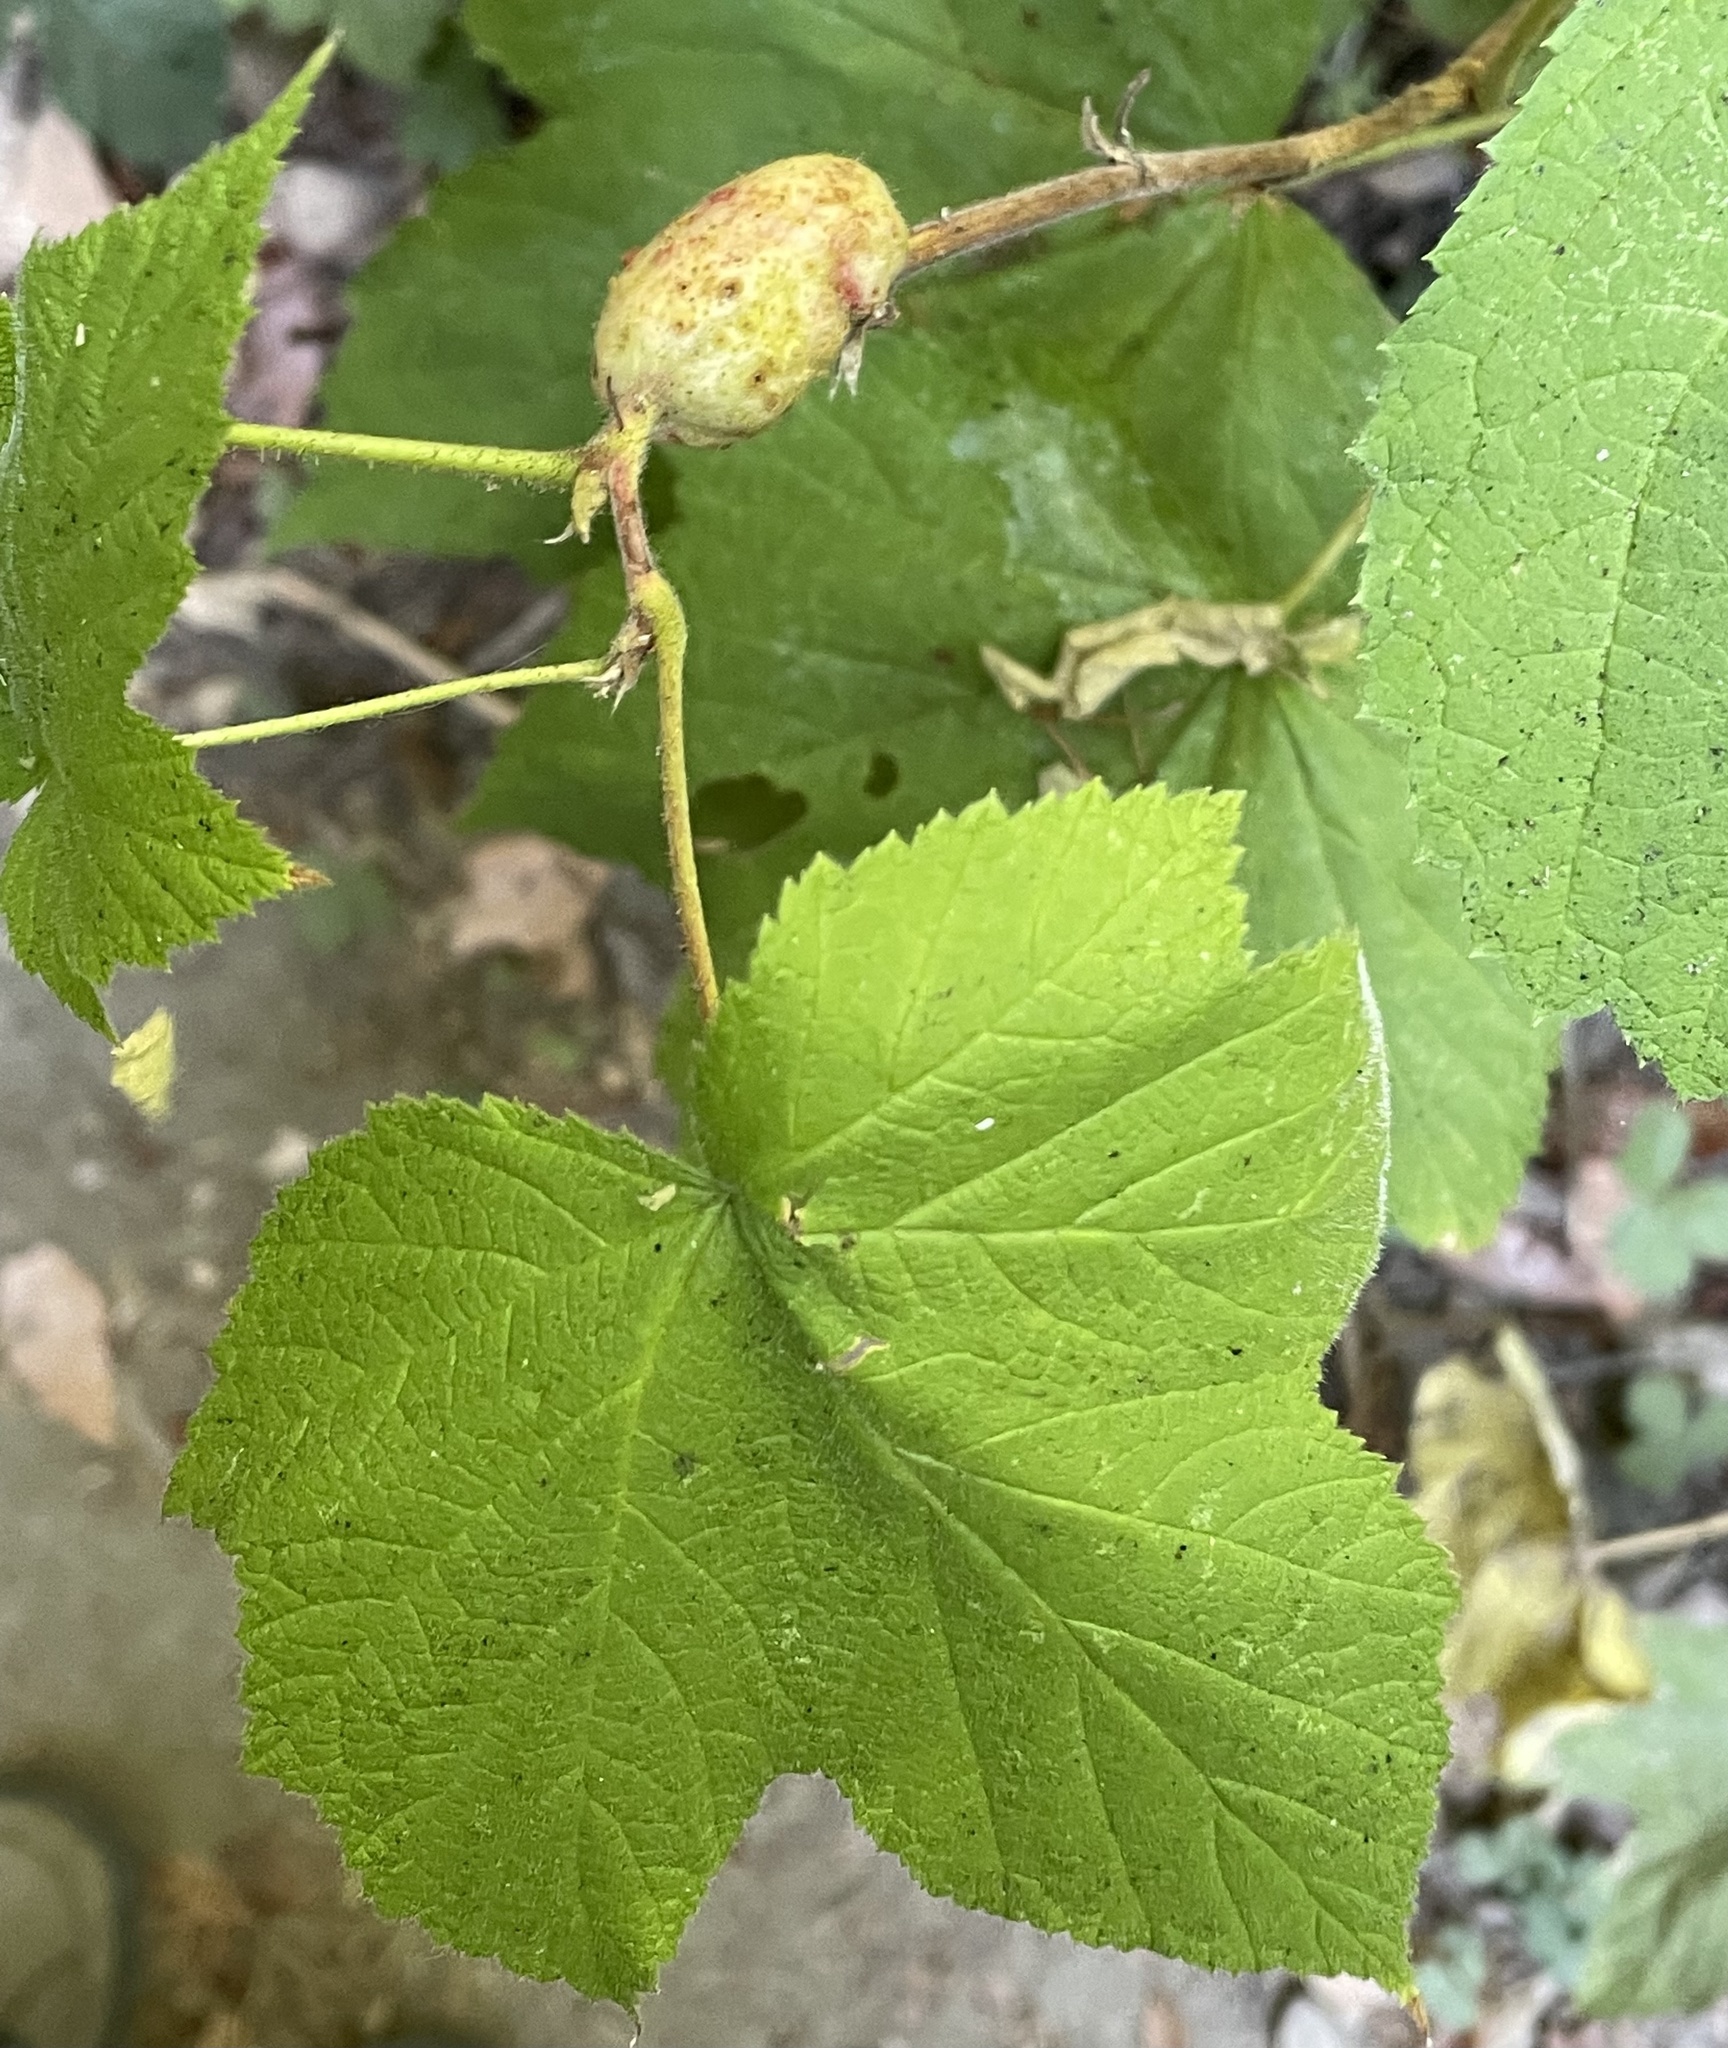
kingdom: Plantae
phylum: Tracheophyta
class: Magnoliopsida
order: Rosales
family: Rosaceae
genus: Rubus
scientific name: Rubus parviflorus
